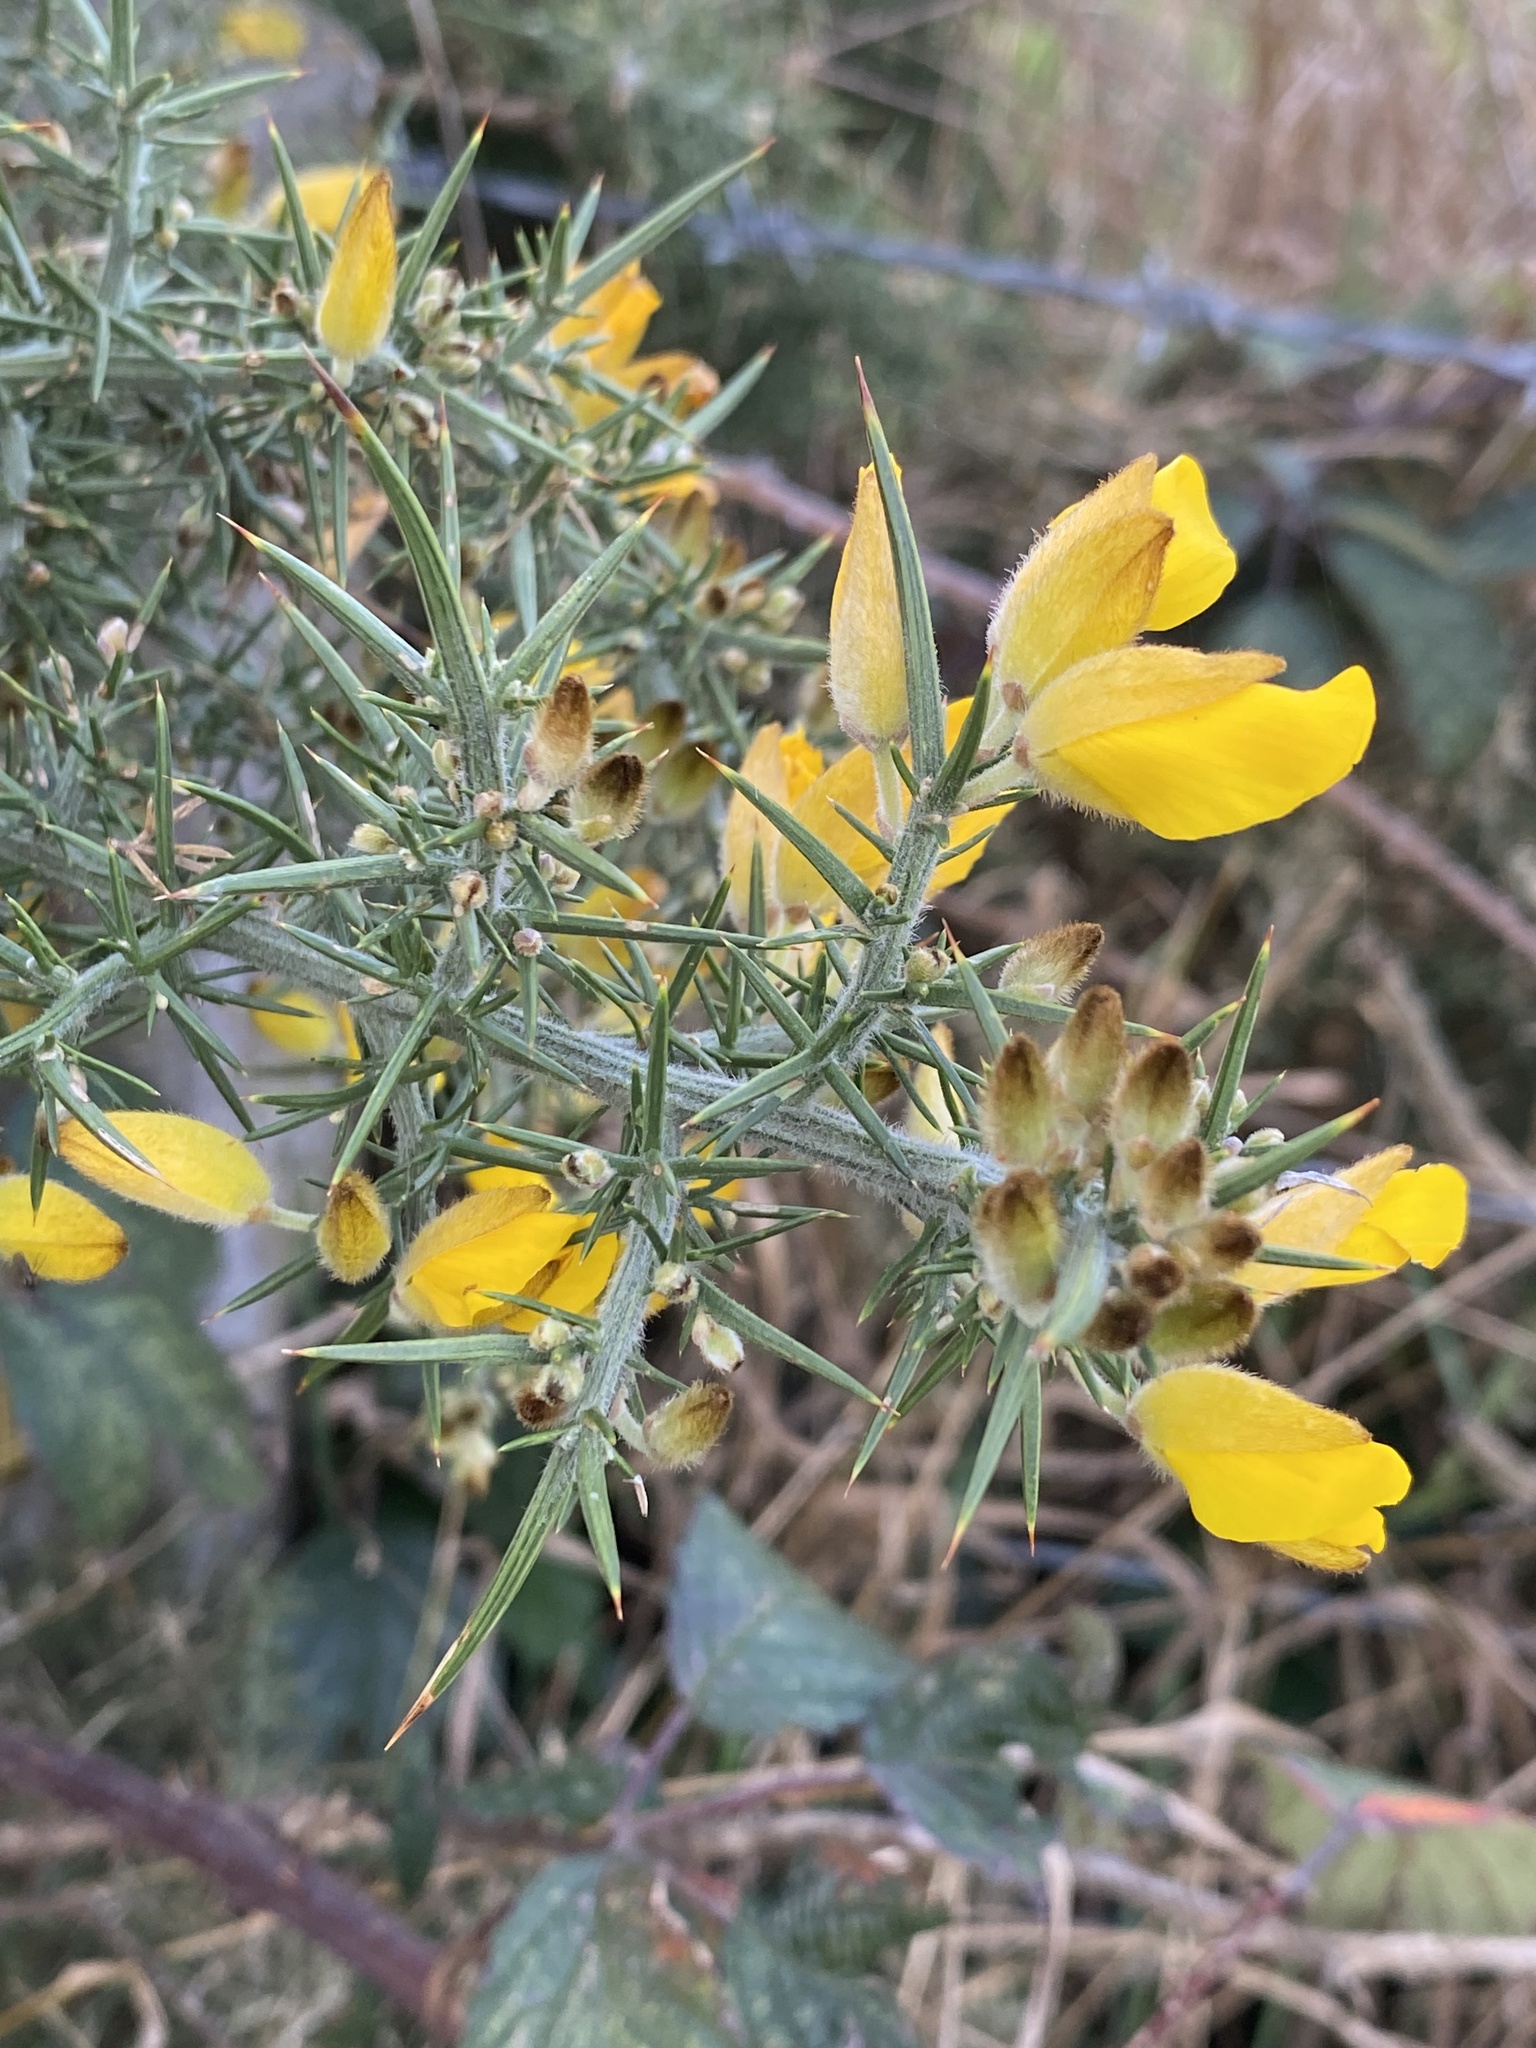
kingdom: Plantae
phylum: Tracheophyta
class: Magnoliopsida
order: Fabales
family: Fabaceae
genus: Ulex
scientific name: Ulex europaeus
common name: Common gorse
